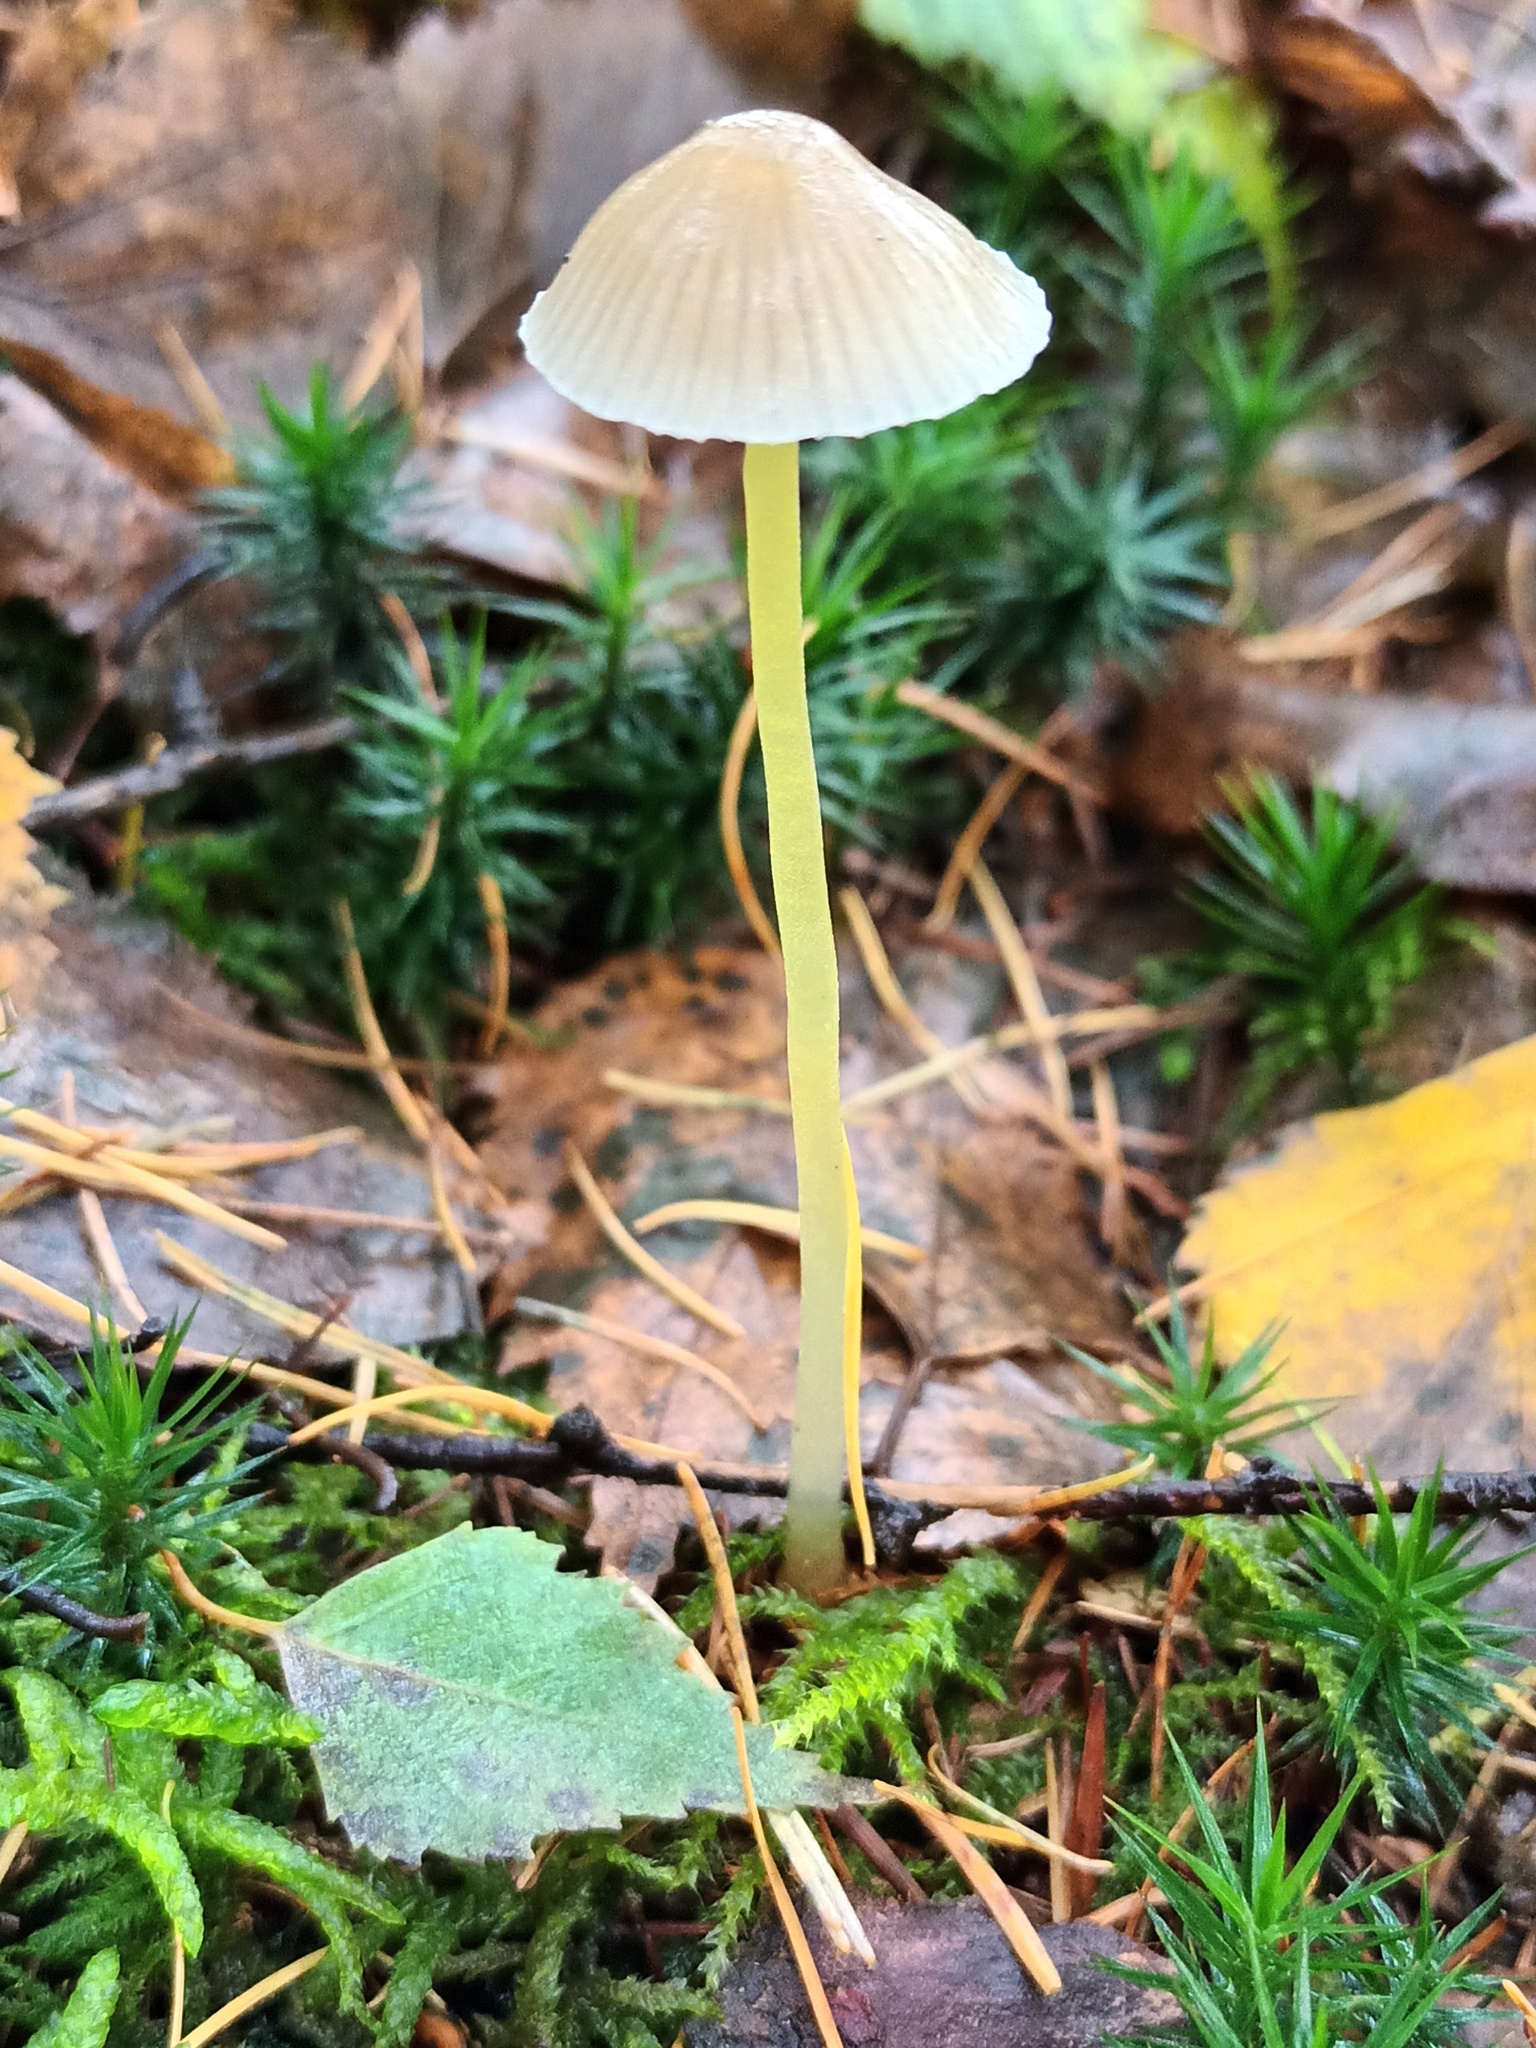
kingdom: Fungi
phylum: Basidiomycota
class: Agaricomycetes
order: Agaricales
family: Mycenaceae
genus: Mycena
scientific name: Mycena epipterygia
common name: Yellowleg bonnet
